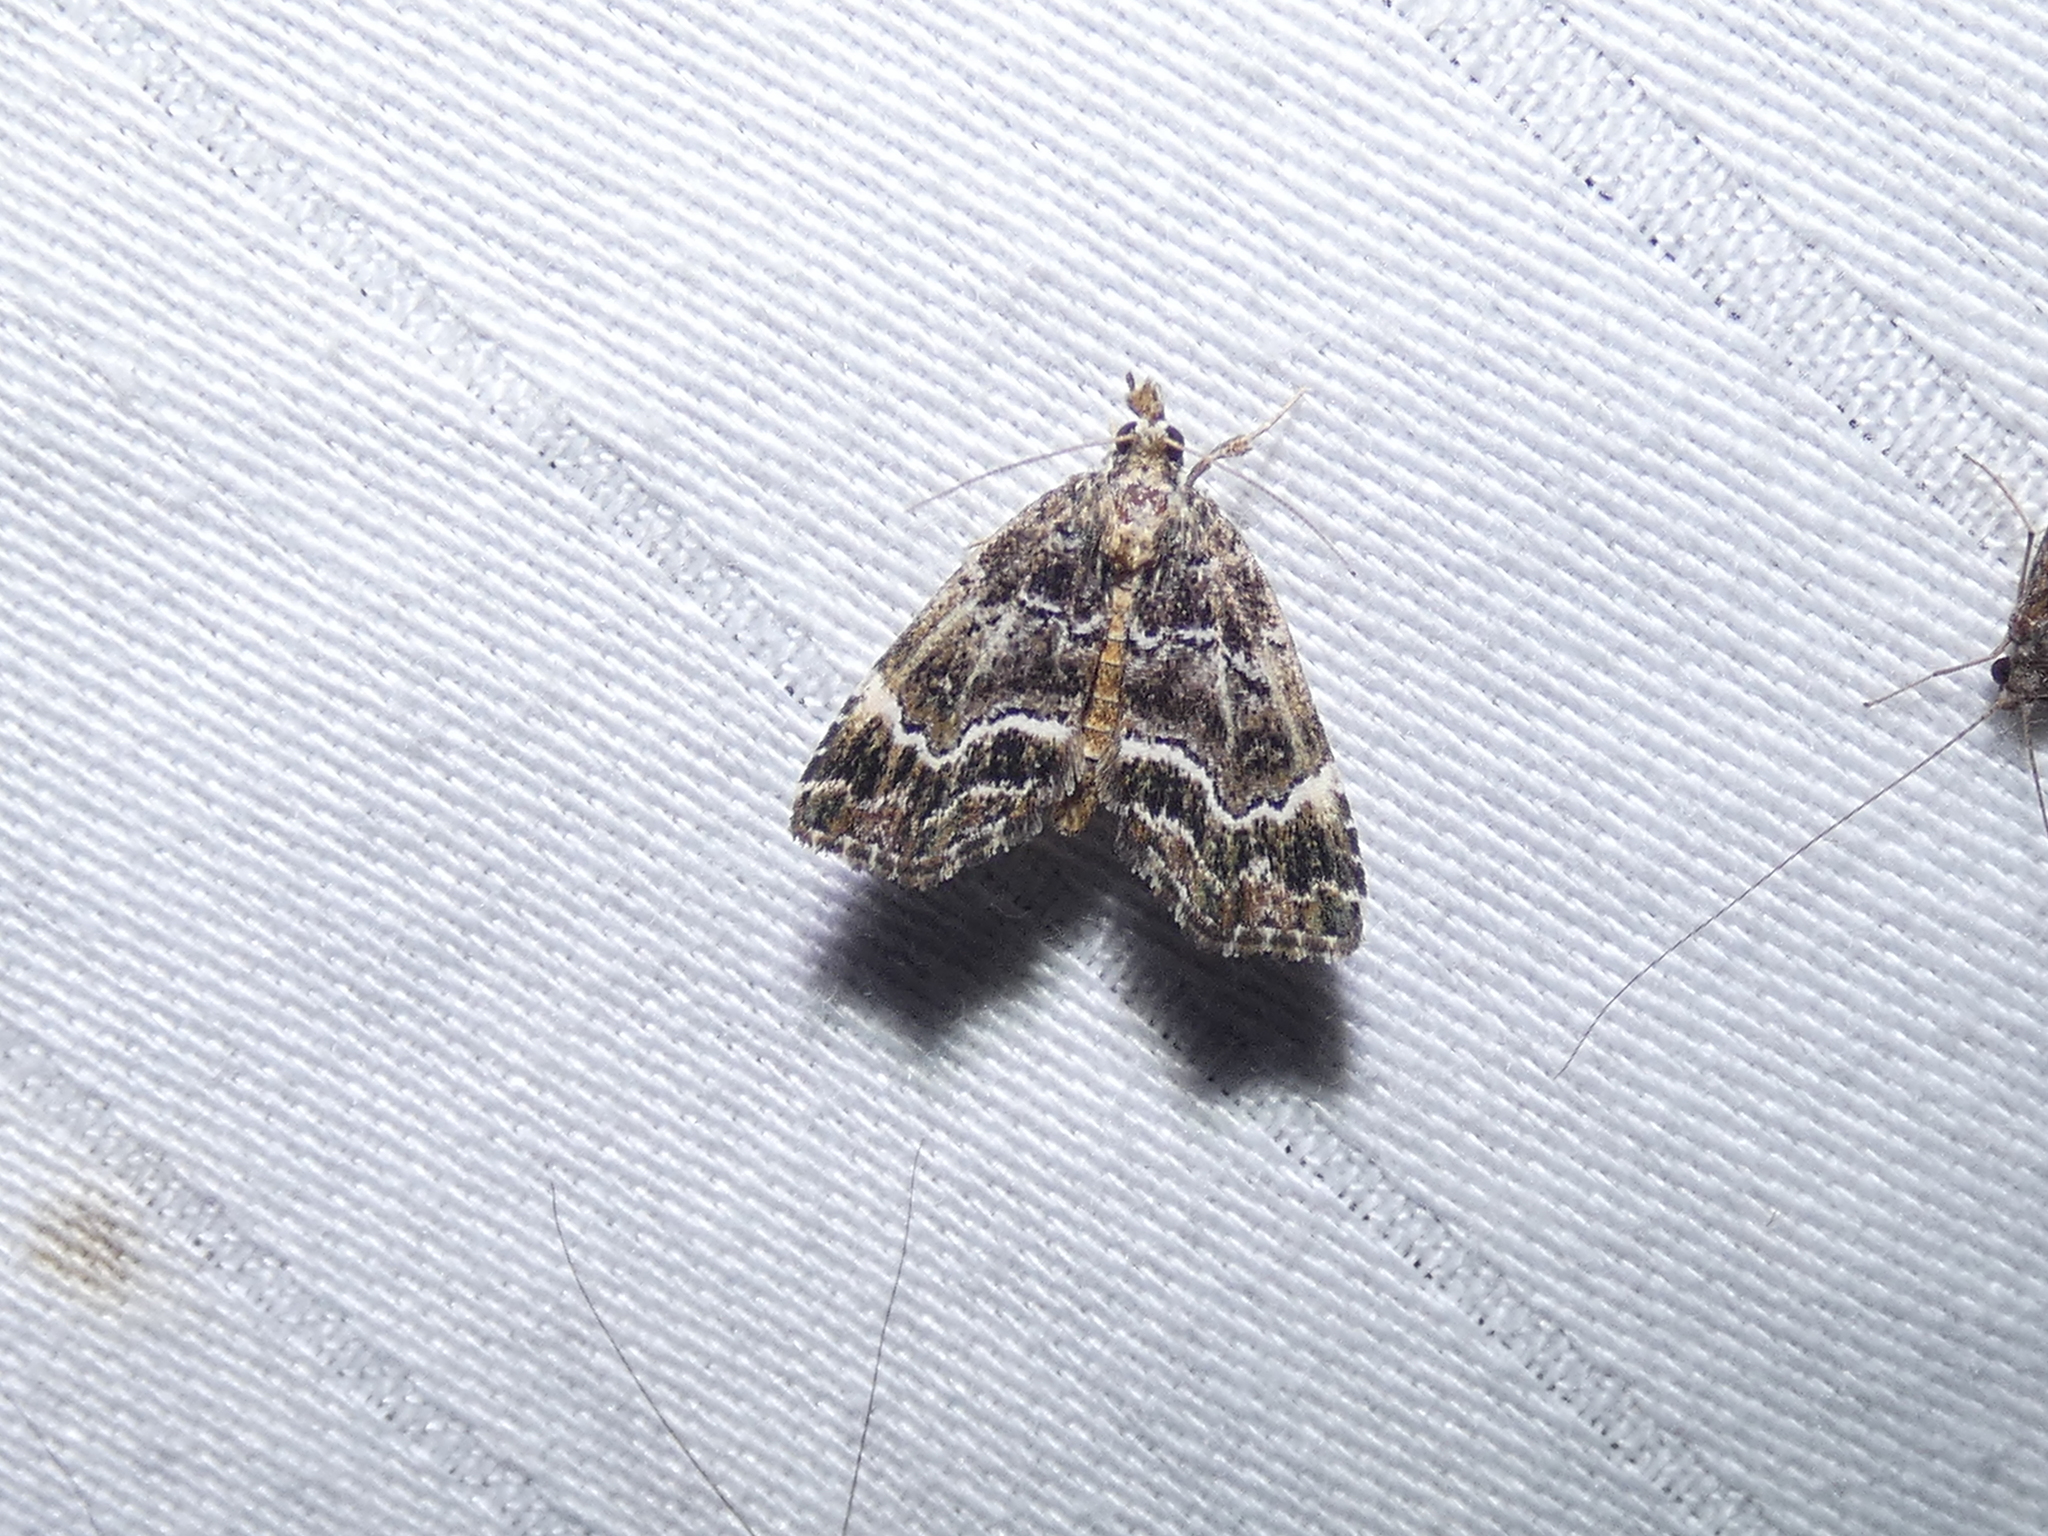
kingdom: Animalia
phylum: Arthropoda
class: Insecta
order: Lepidoptera
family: Erebidae
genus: Cutina
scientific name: Cutina arcuata
